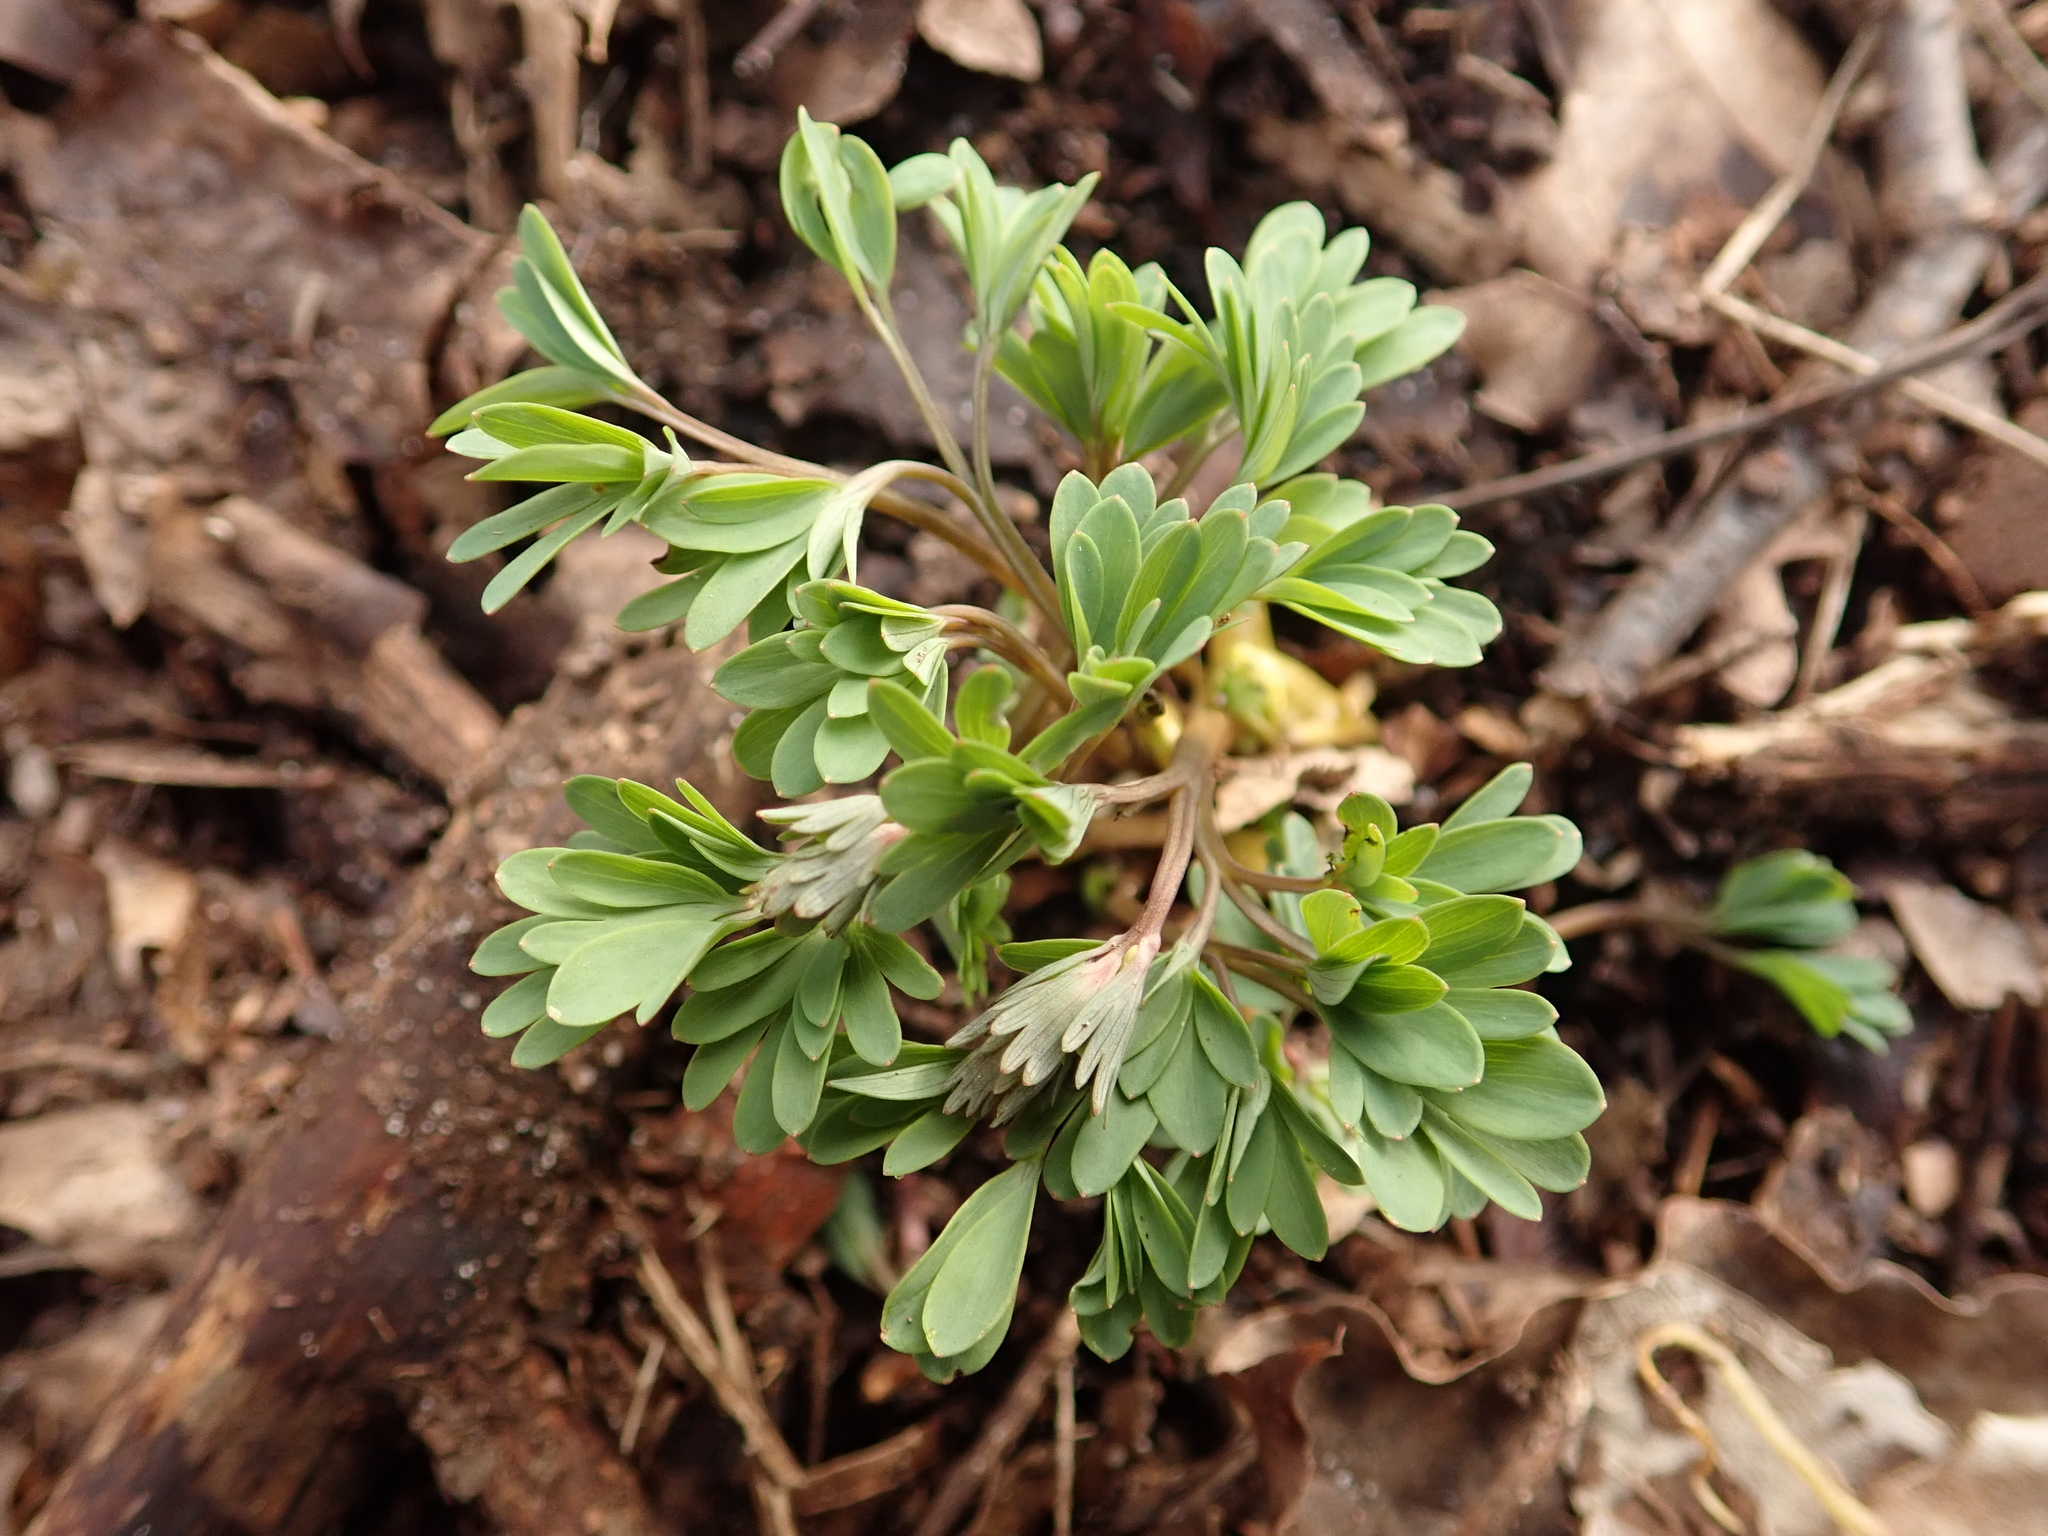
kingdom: Plantae
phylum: Tracheophyta
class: Magnoliopsida
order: Ranunculales
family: Papaveraceae
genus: Corydalis
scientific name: Corydalis solida
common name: Bird-in-a-bush
